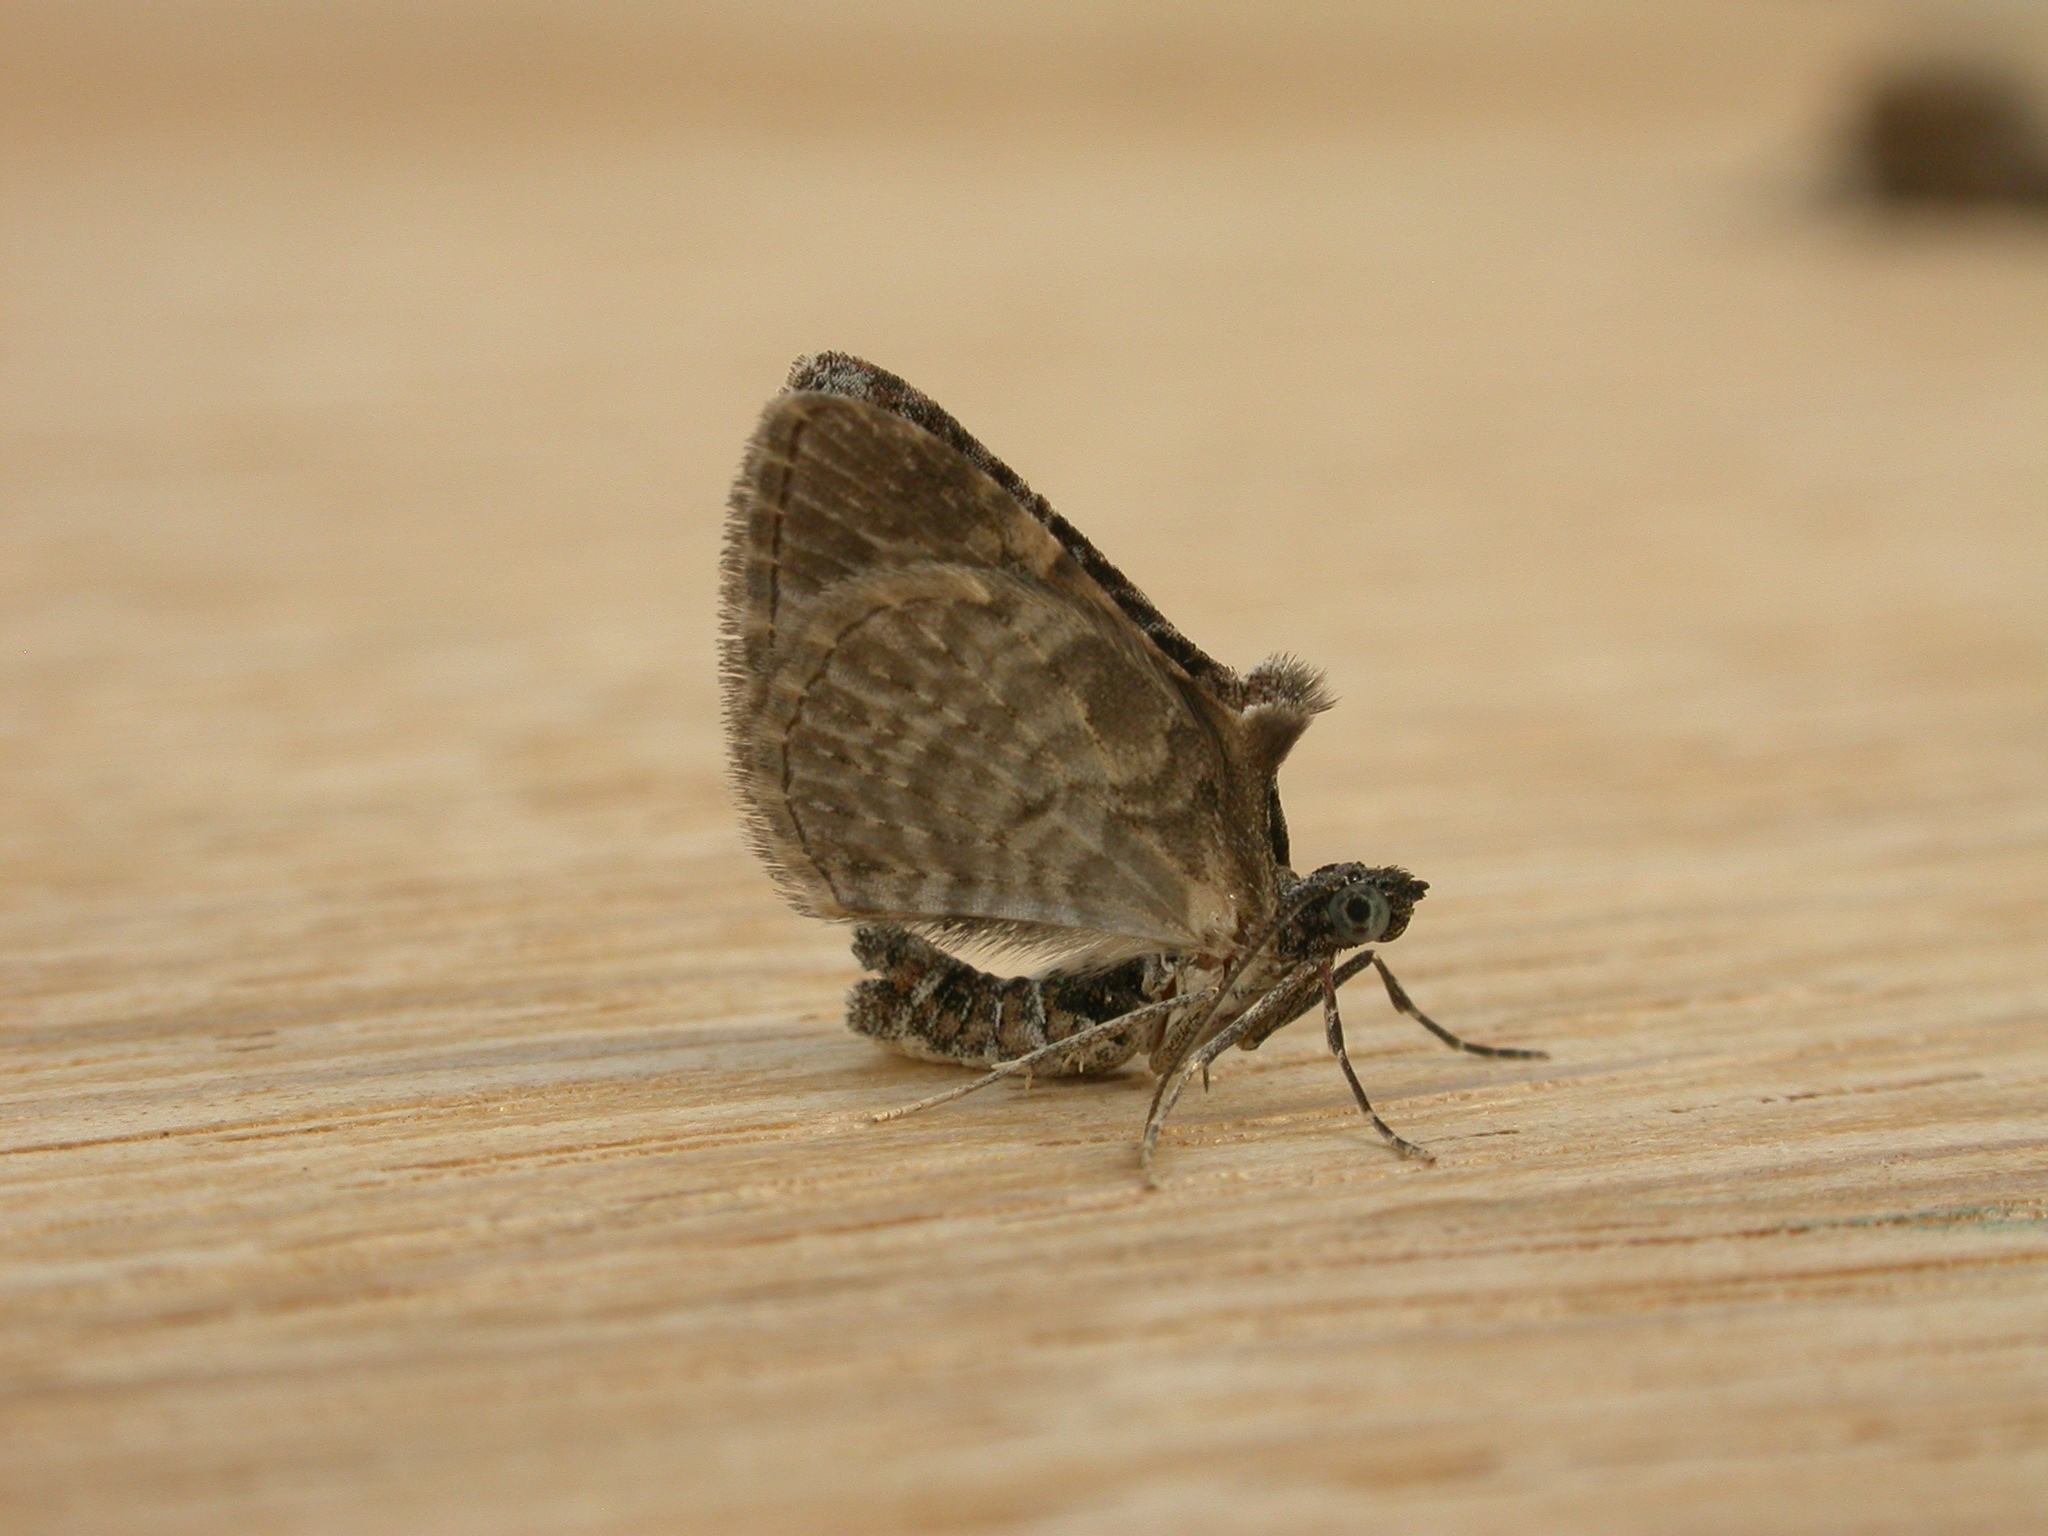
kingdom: Animalia
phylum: Arthropoda
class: Insecta
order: Lepidoptera
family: Geometridae
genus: Phrissogonus
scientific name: Phrissogonus laticostata
